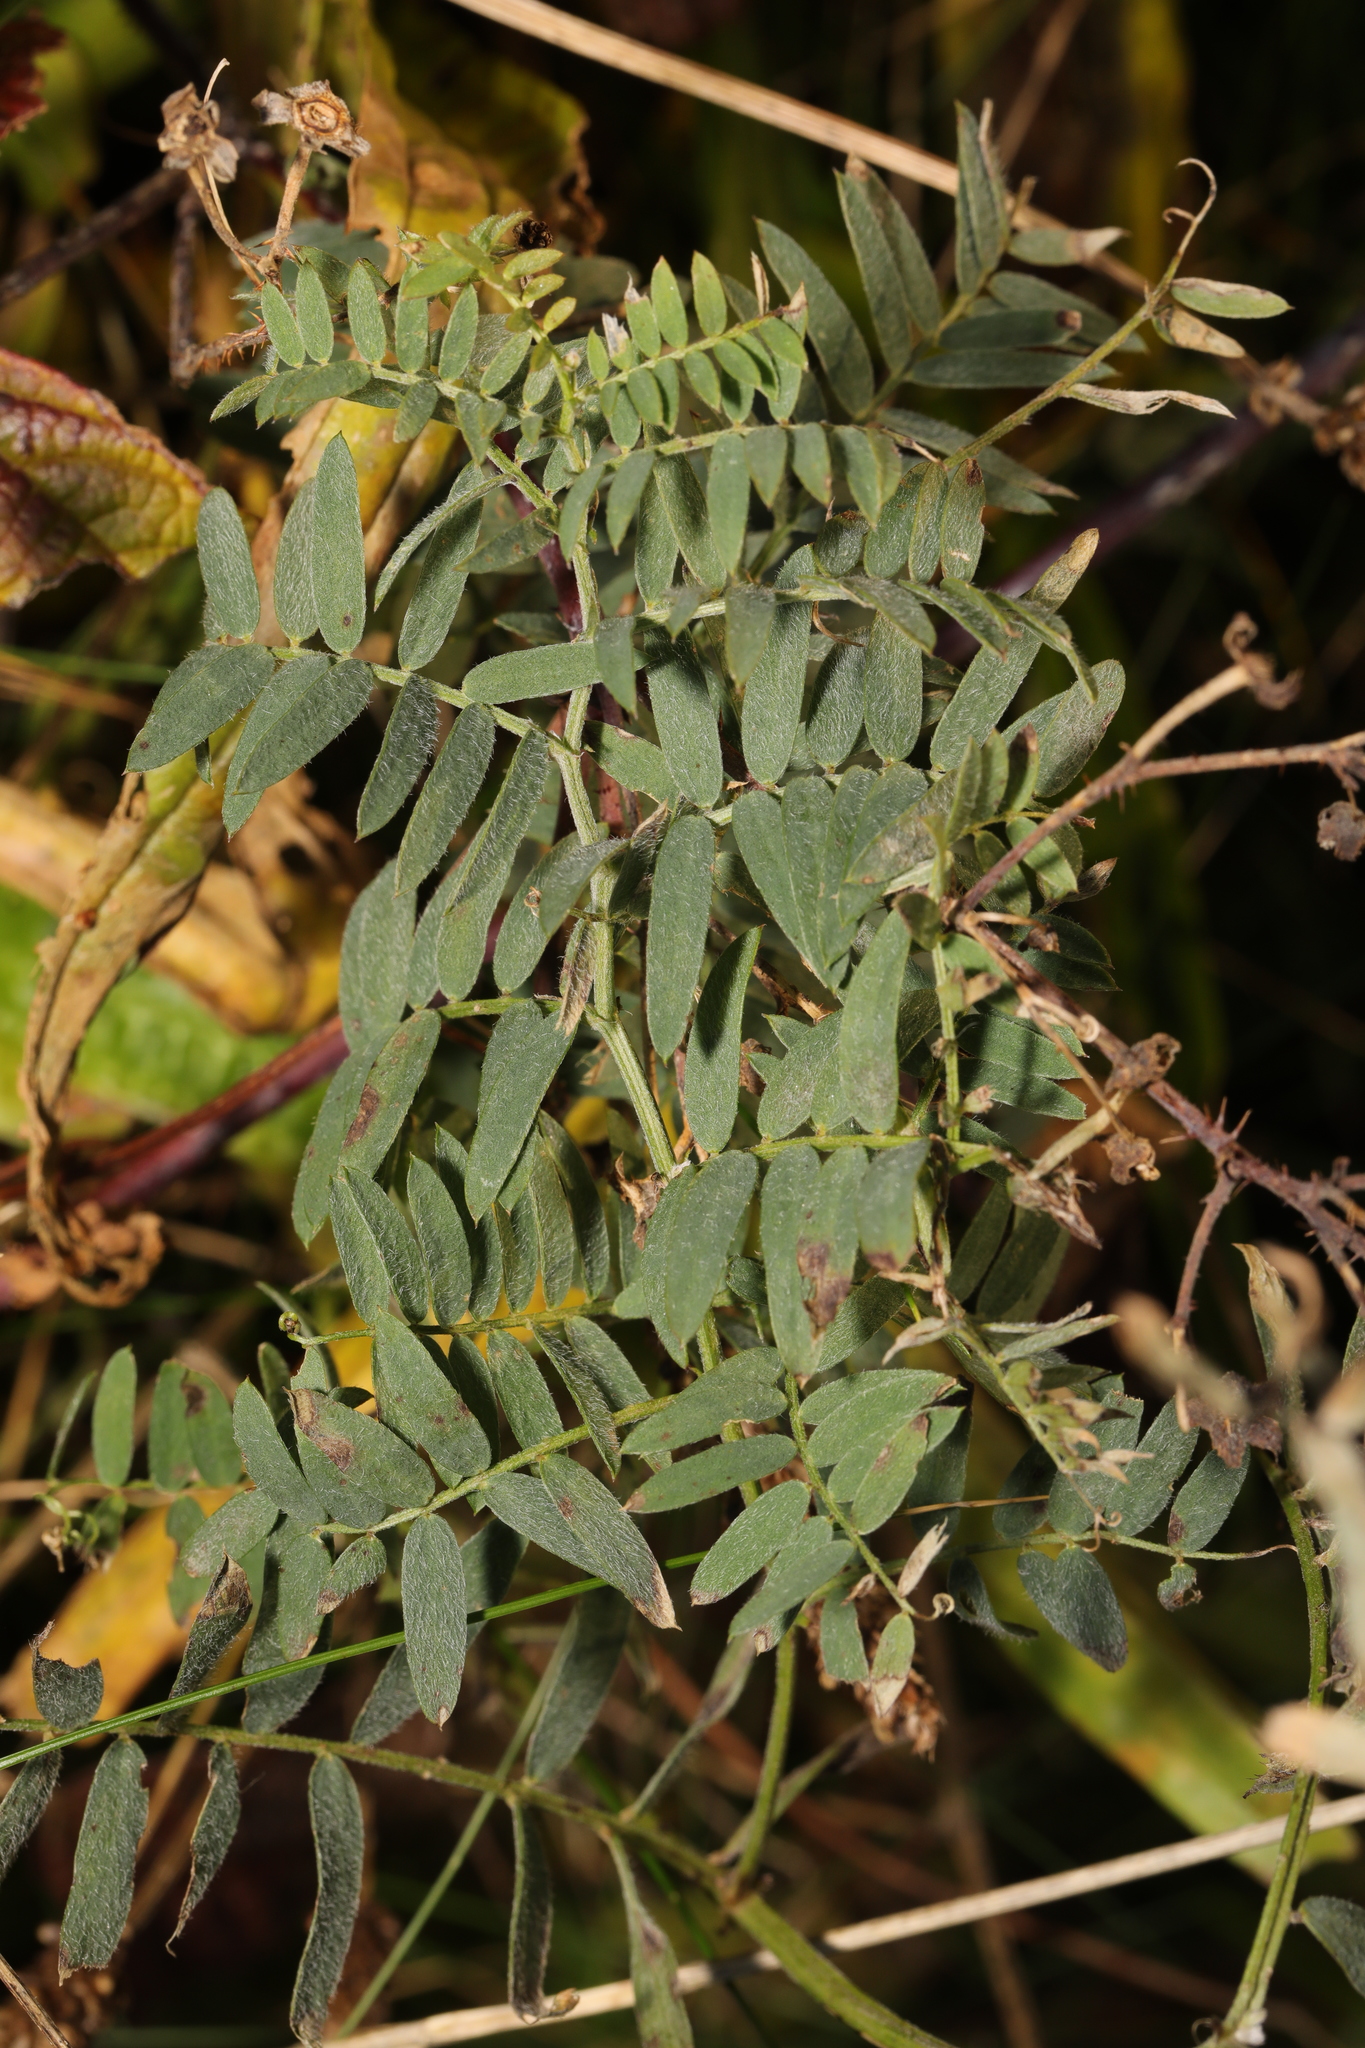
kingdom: Plantae
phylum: Tracheophyta
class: Magnoliopsida
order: Fabales
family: Fabaceae
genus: Vicia
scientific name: Vicia cracca
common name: Bird vetch
